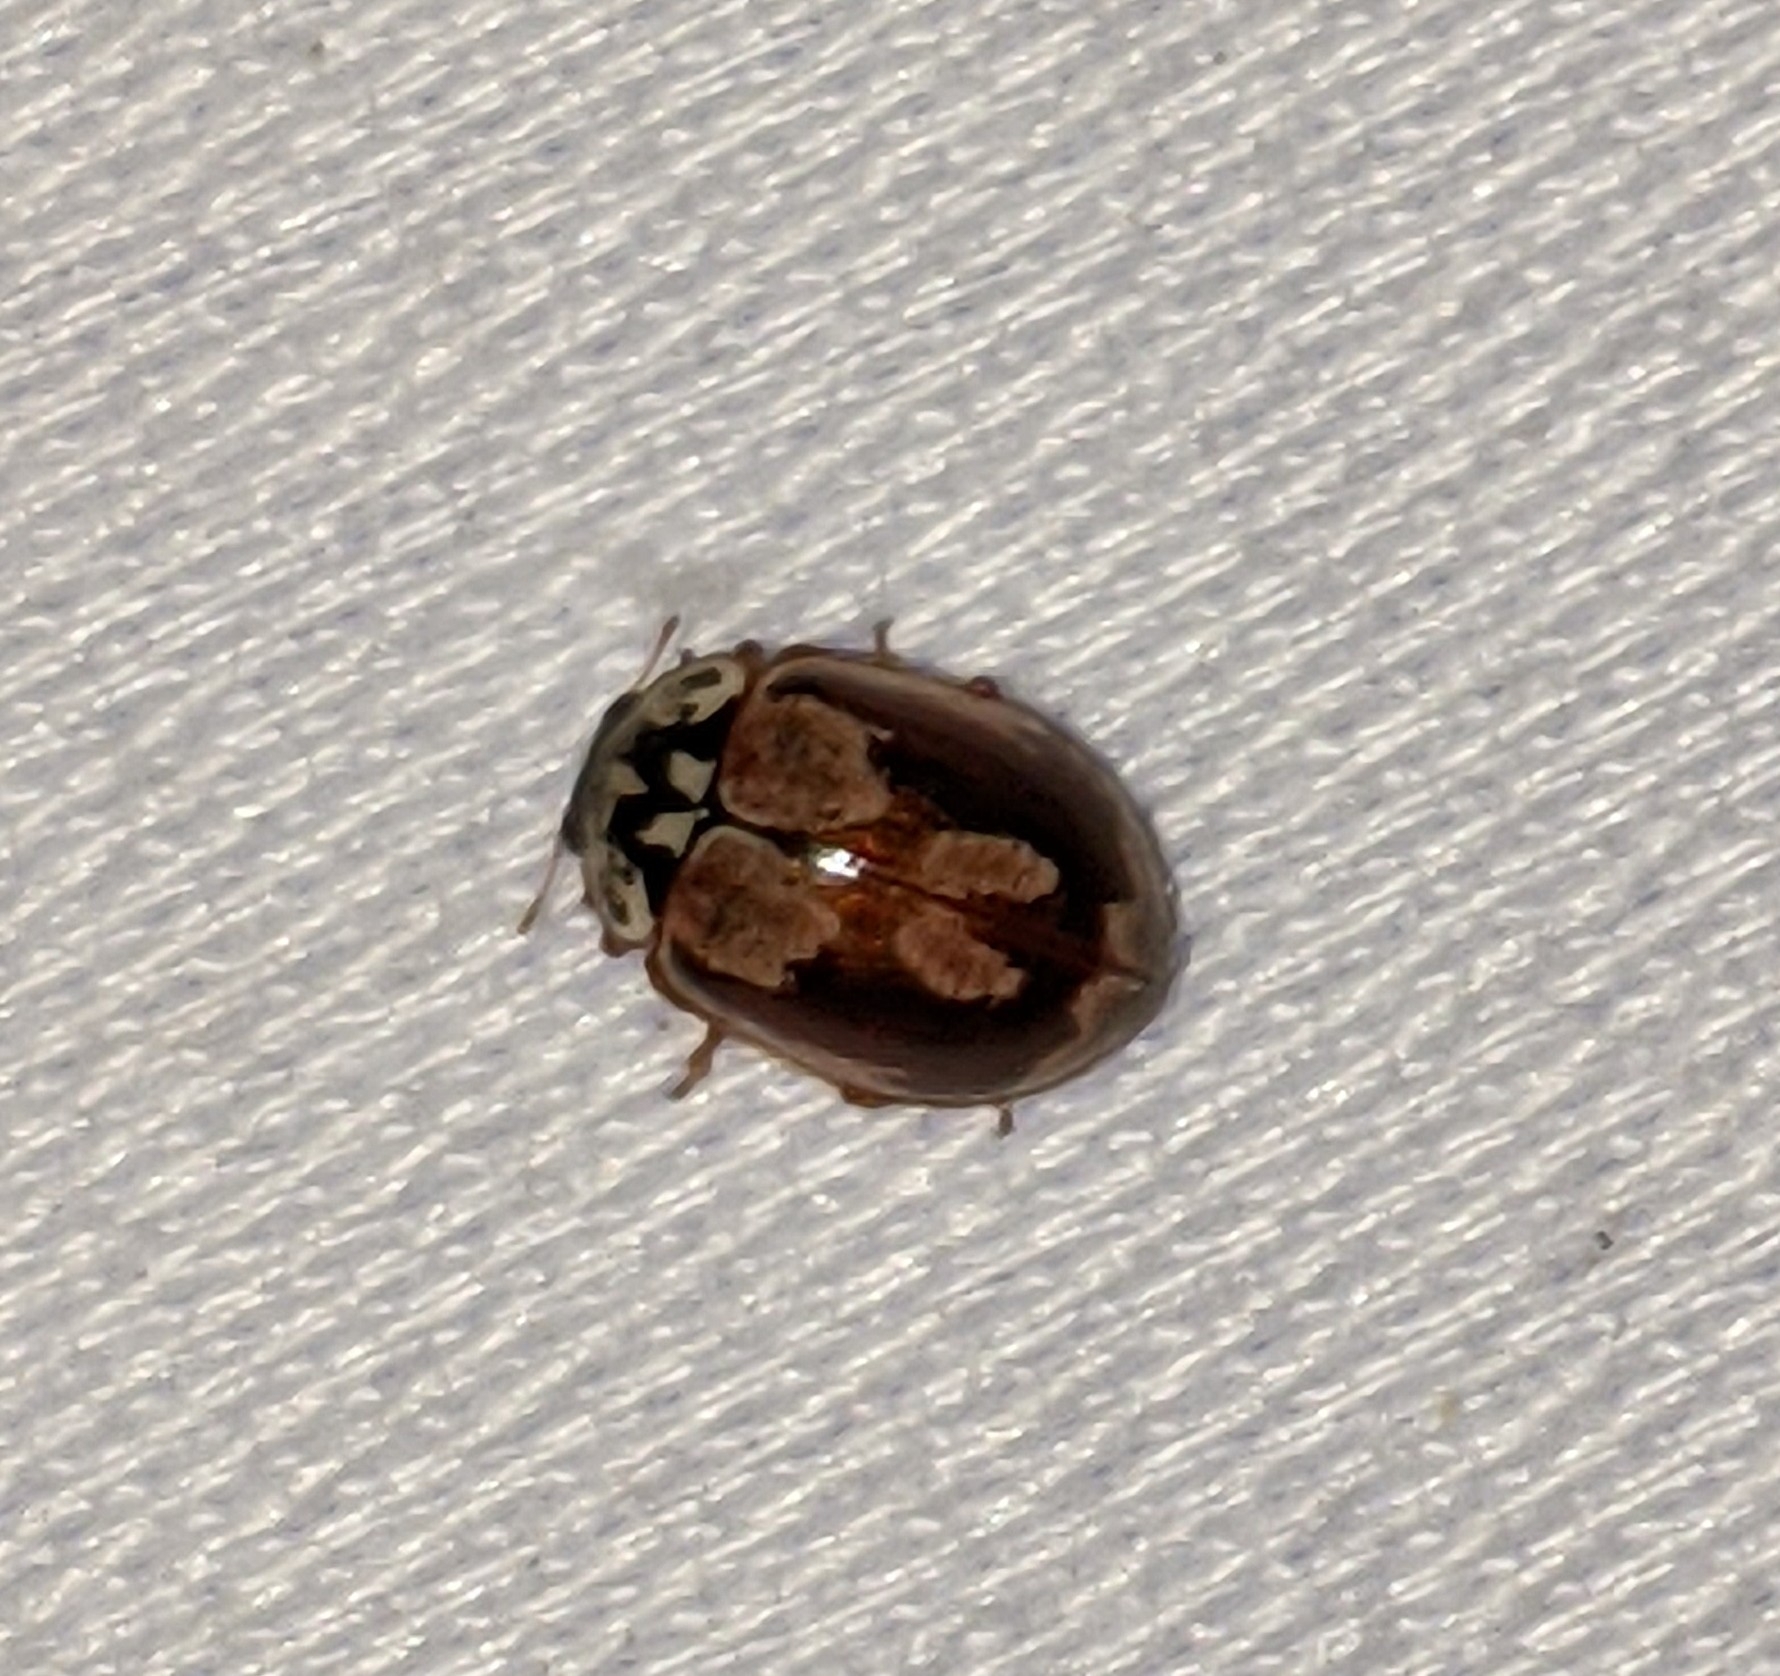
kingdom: Animalia
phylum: Arthropoda
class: Insecta
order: Coleoptera
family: Coccinellidae
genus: Mulsantina
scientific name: Mulsantina picta
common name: Painted ladybird
